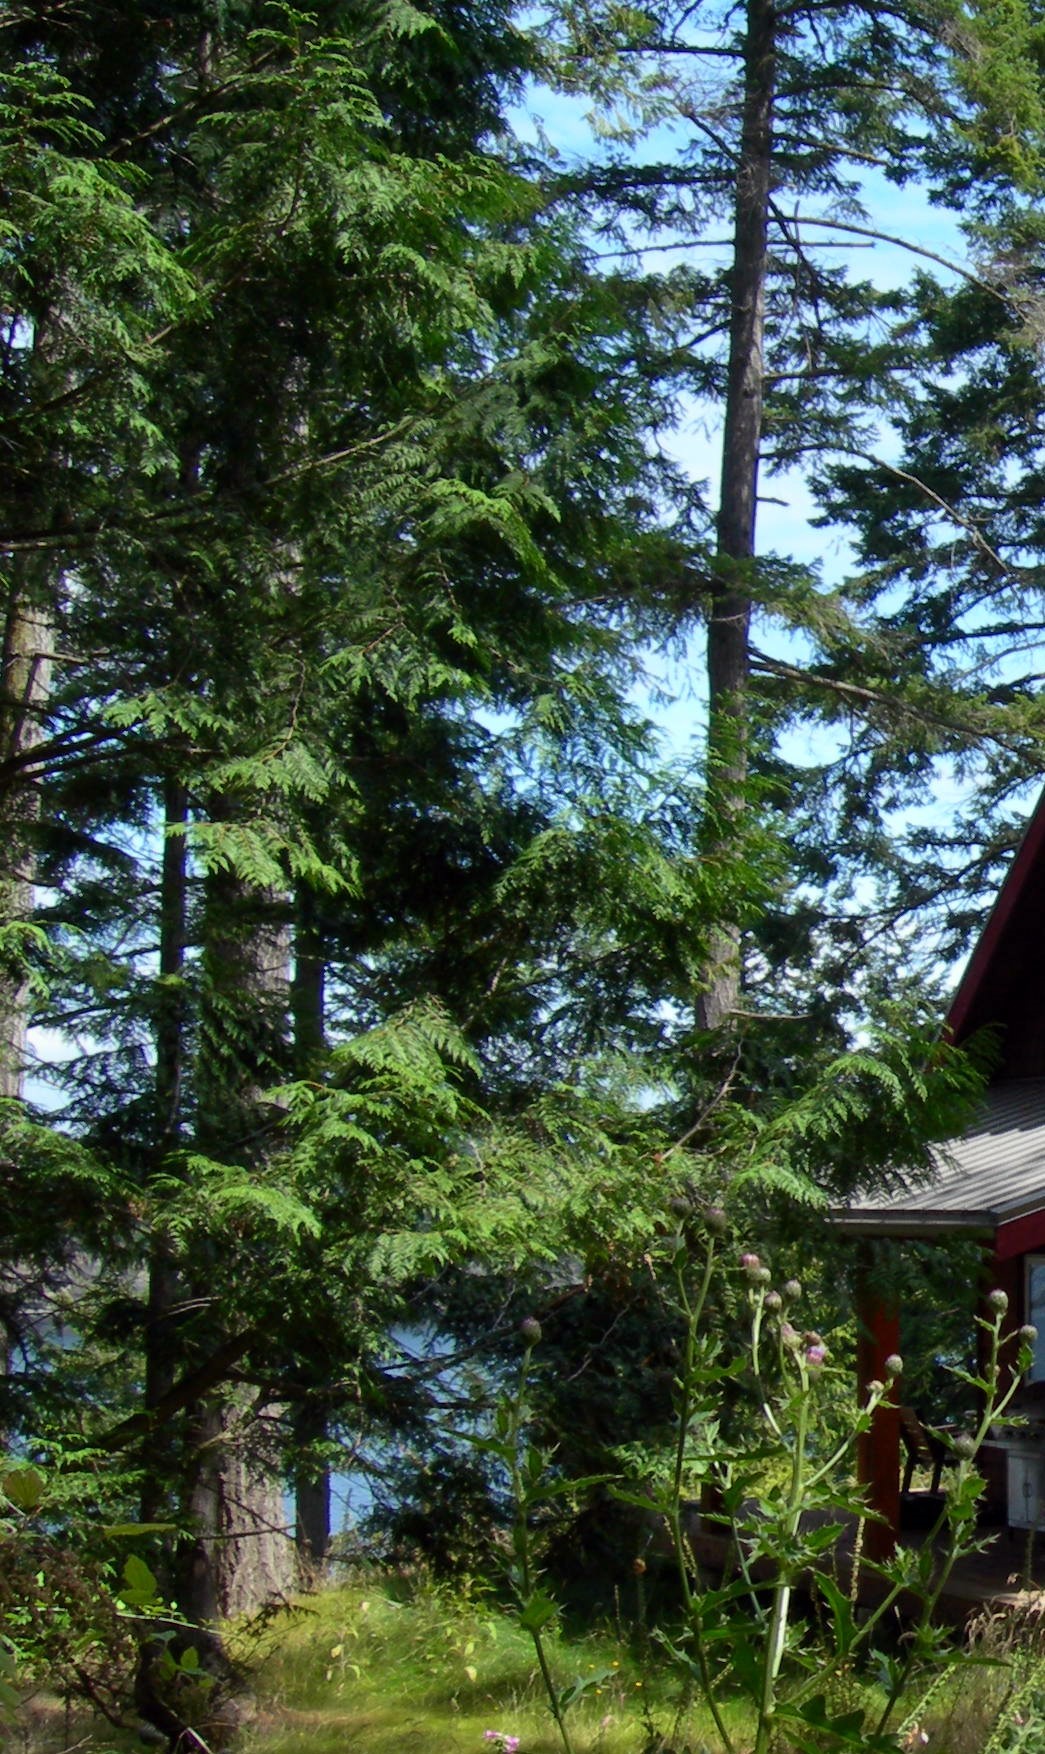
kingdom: Plantae
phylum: Tracheophyta
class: Pinopsida
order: Pinales
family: Cupressaceae
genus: Thuja
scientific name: Thuja plicata
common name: Western red-cedar
